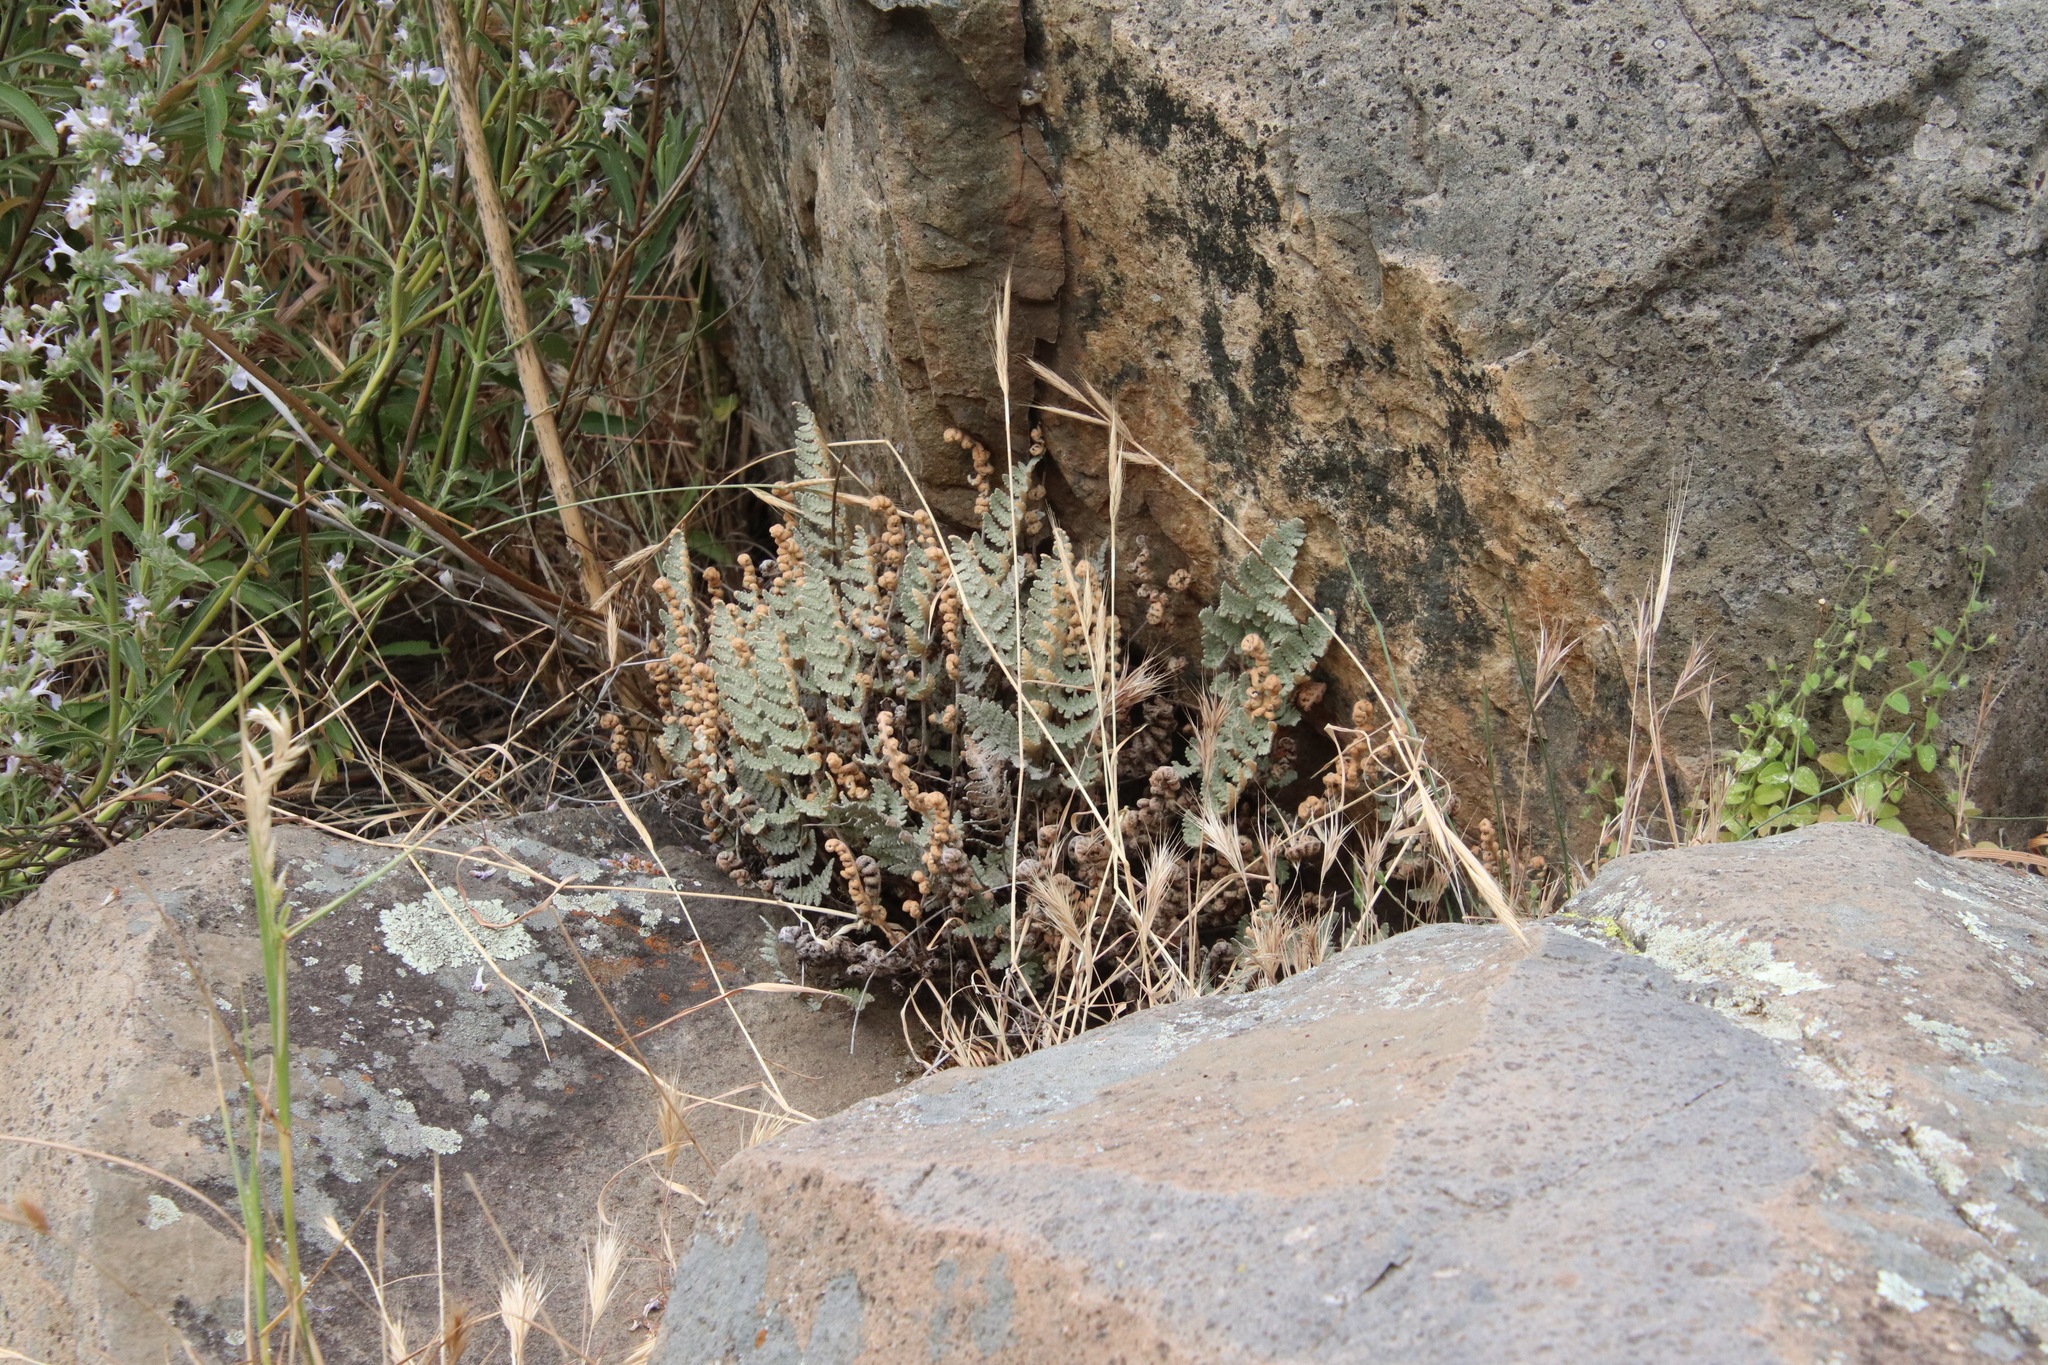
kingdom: Plantae
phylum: Tracheophyta
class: Polypodiopsida
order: Polypodiales
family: Pteridaceae
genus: Myriopteris
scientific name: Myriopteris newberryi
